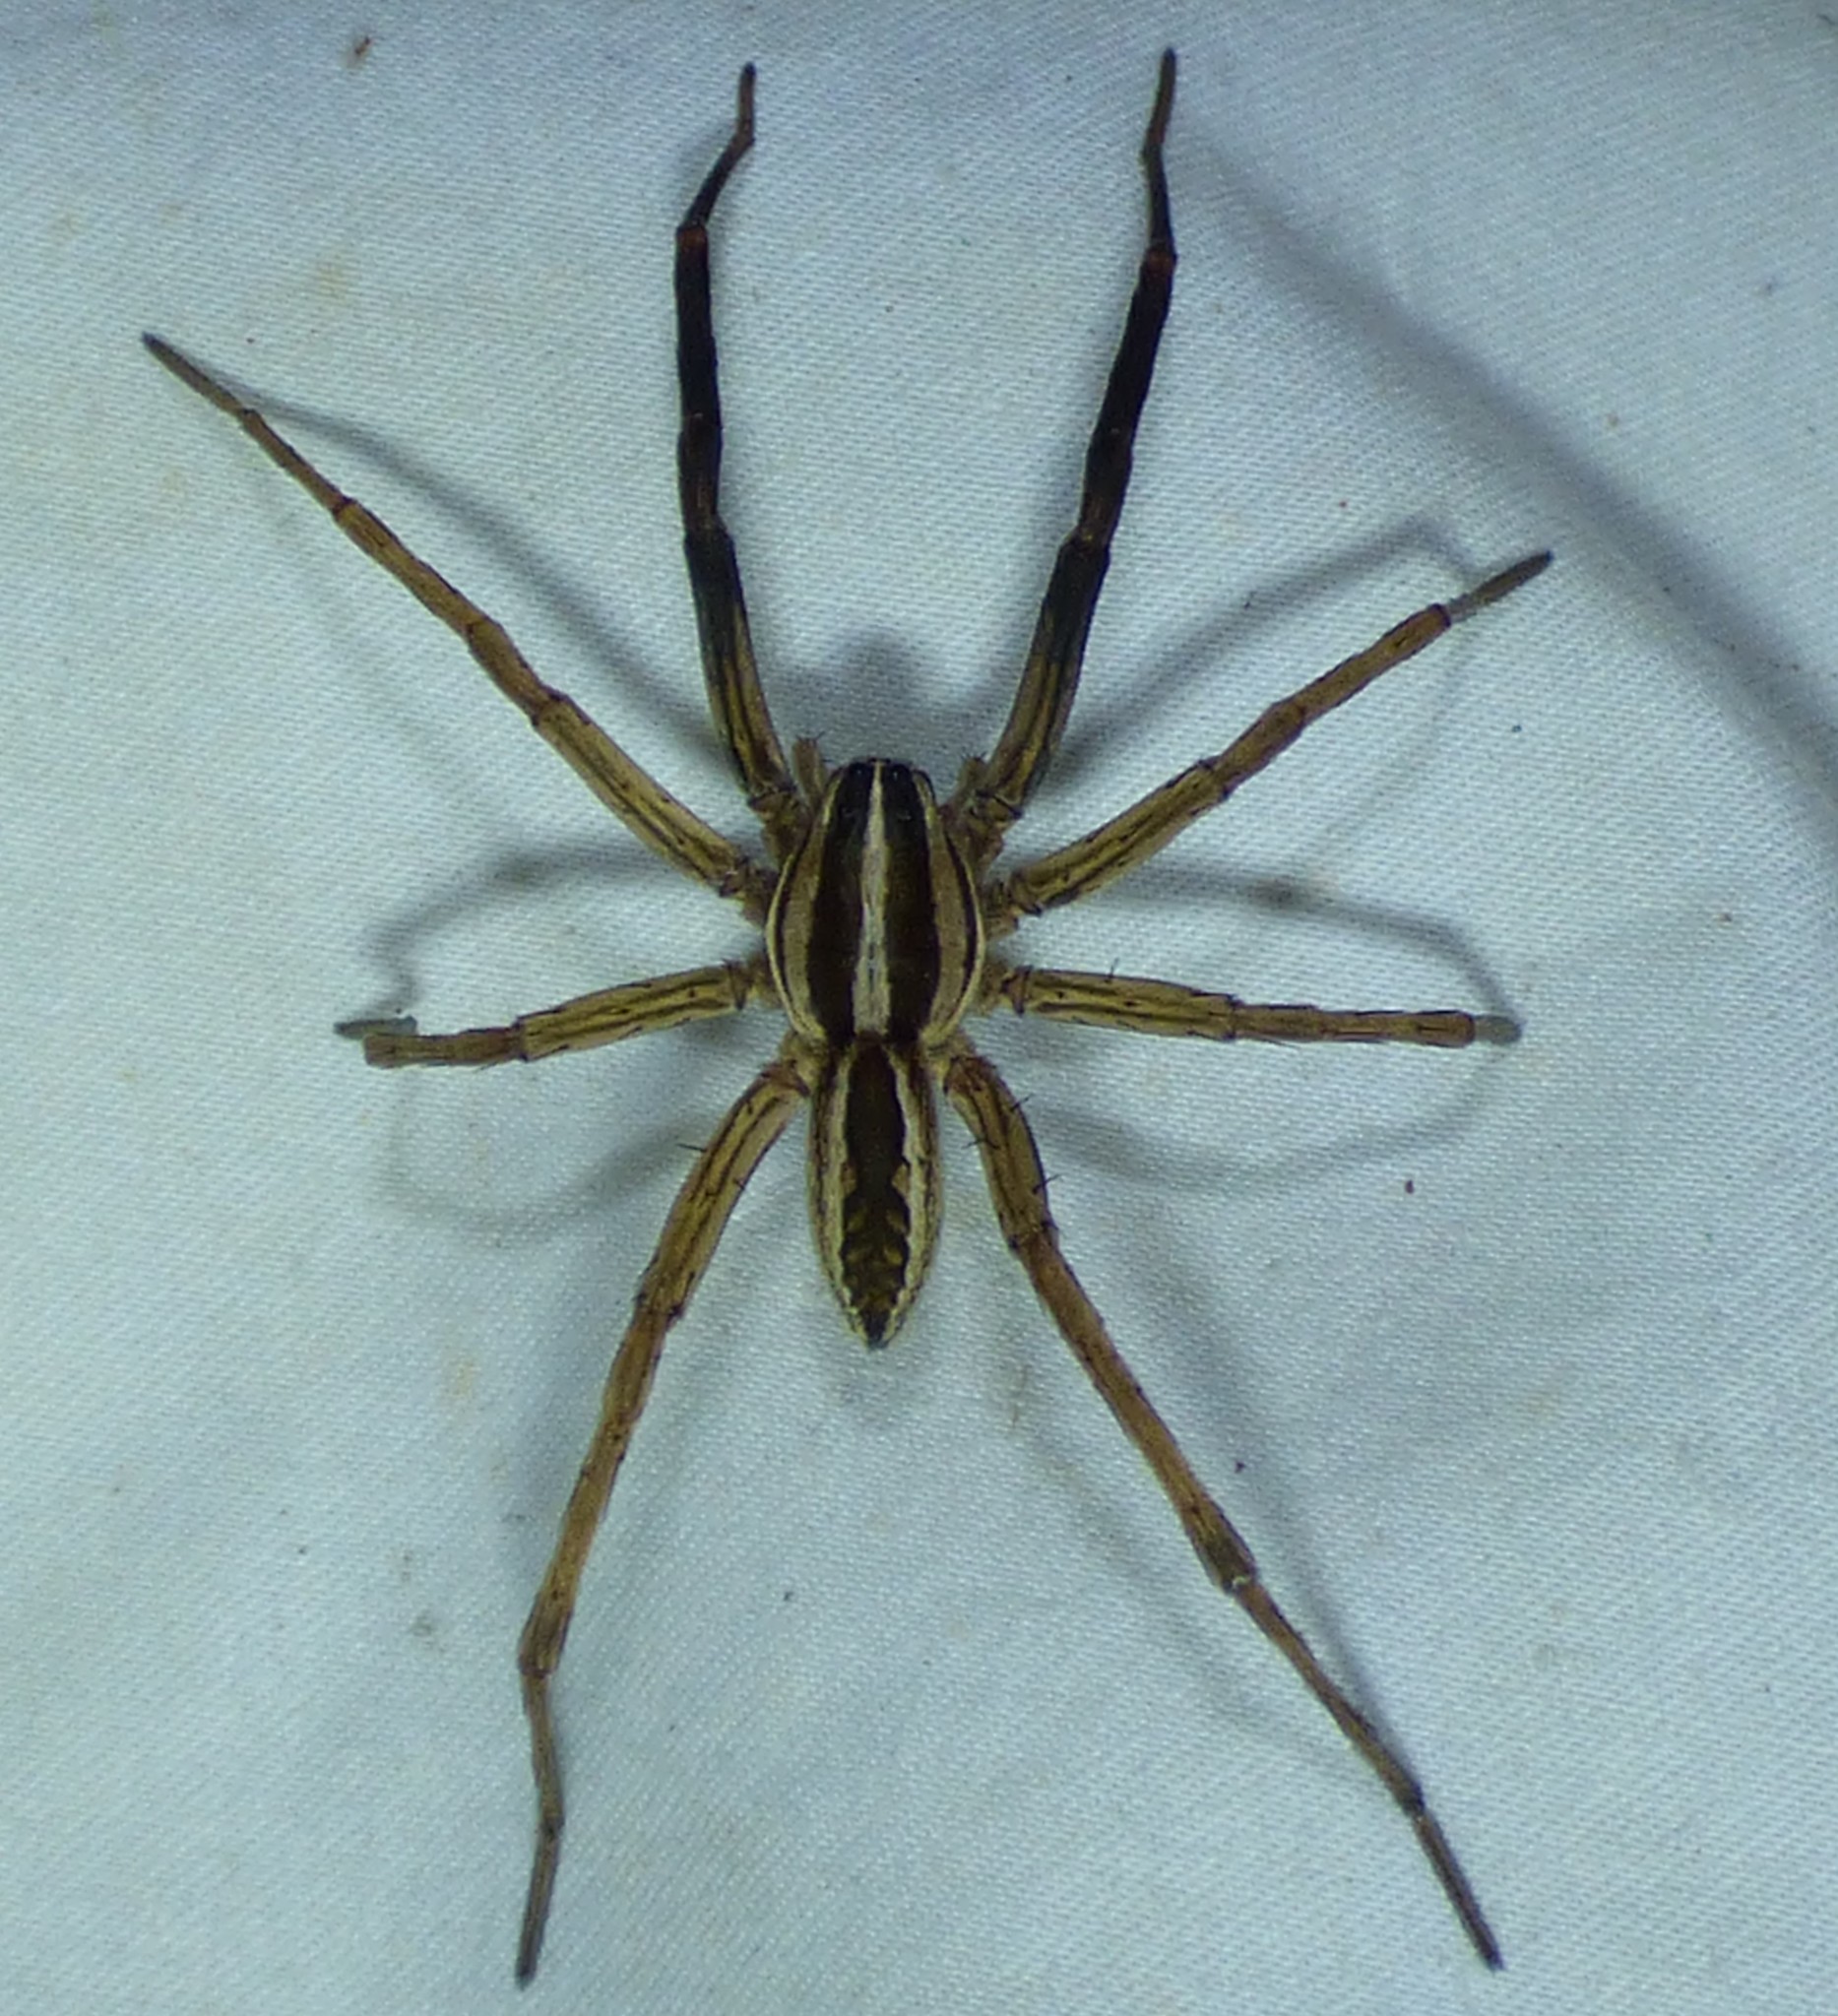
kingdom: Animalia
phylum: Arthropoda
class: Arachnida
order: Araneae
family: Lycosidae
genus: Rabidosa
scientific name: Rabidosa rabida
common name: Rabid wolf spider
